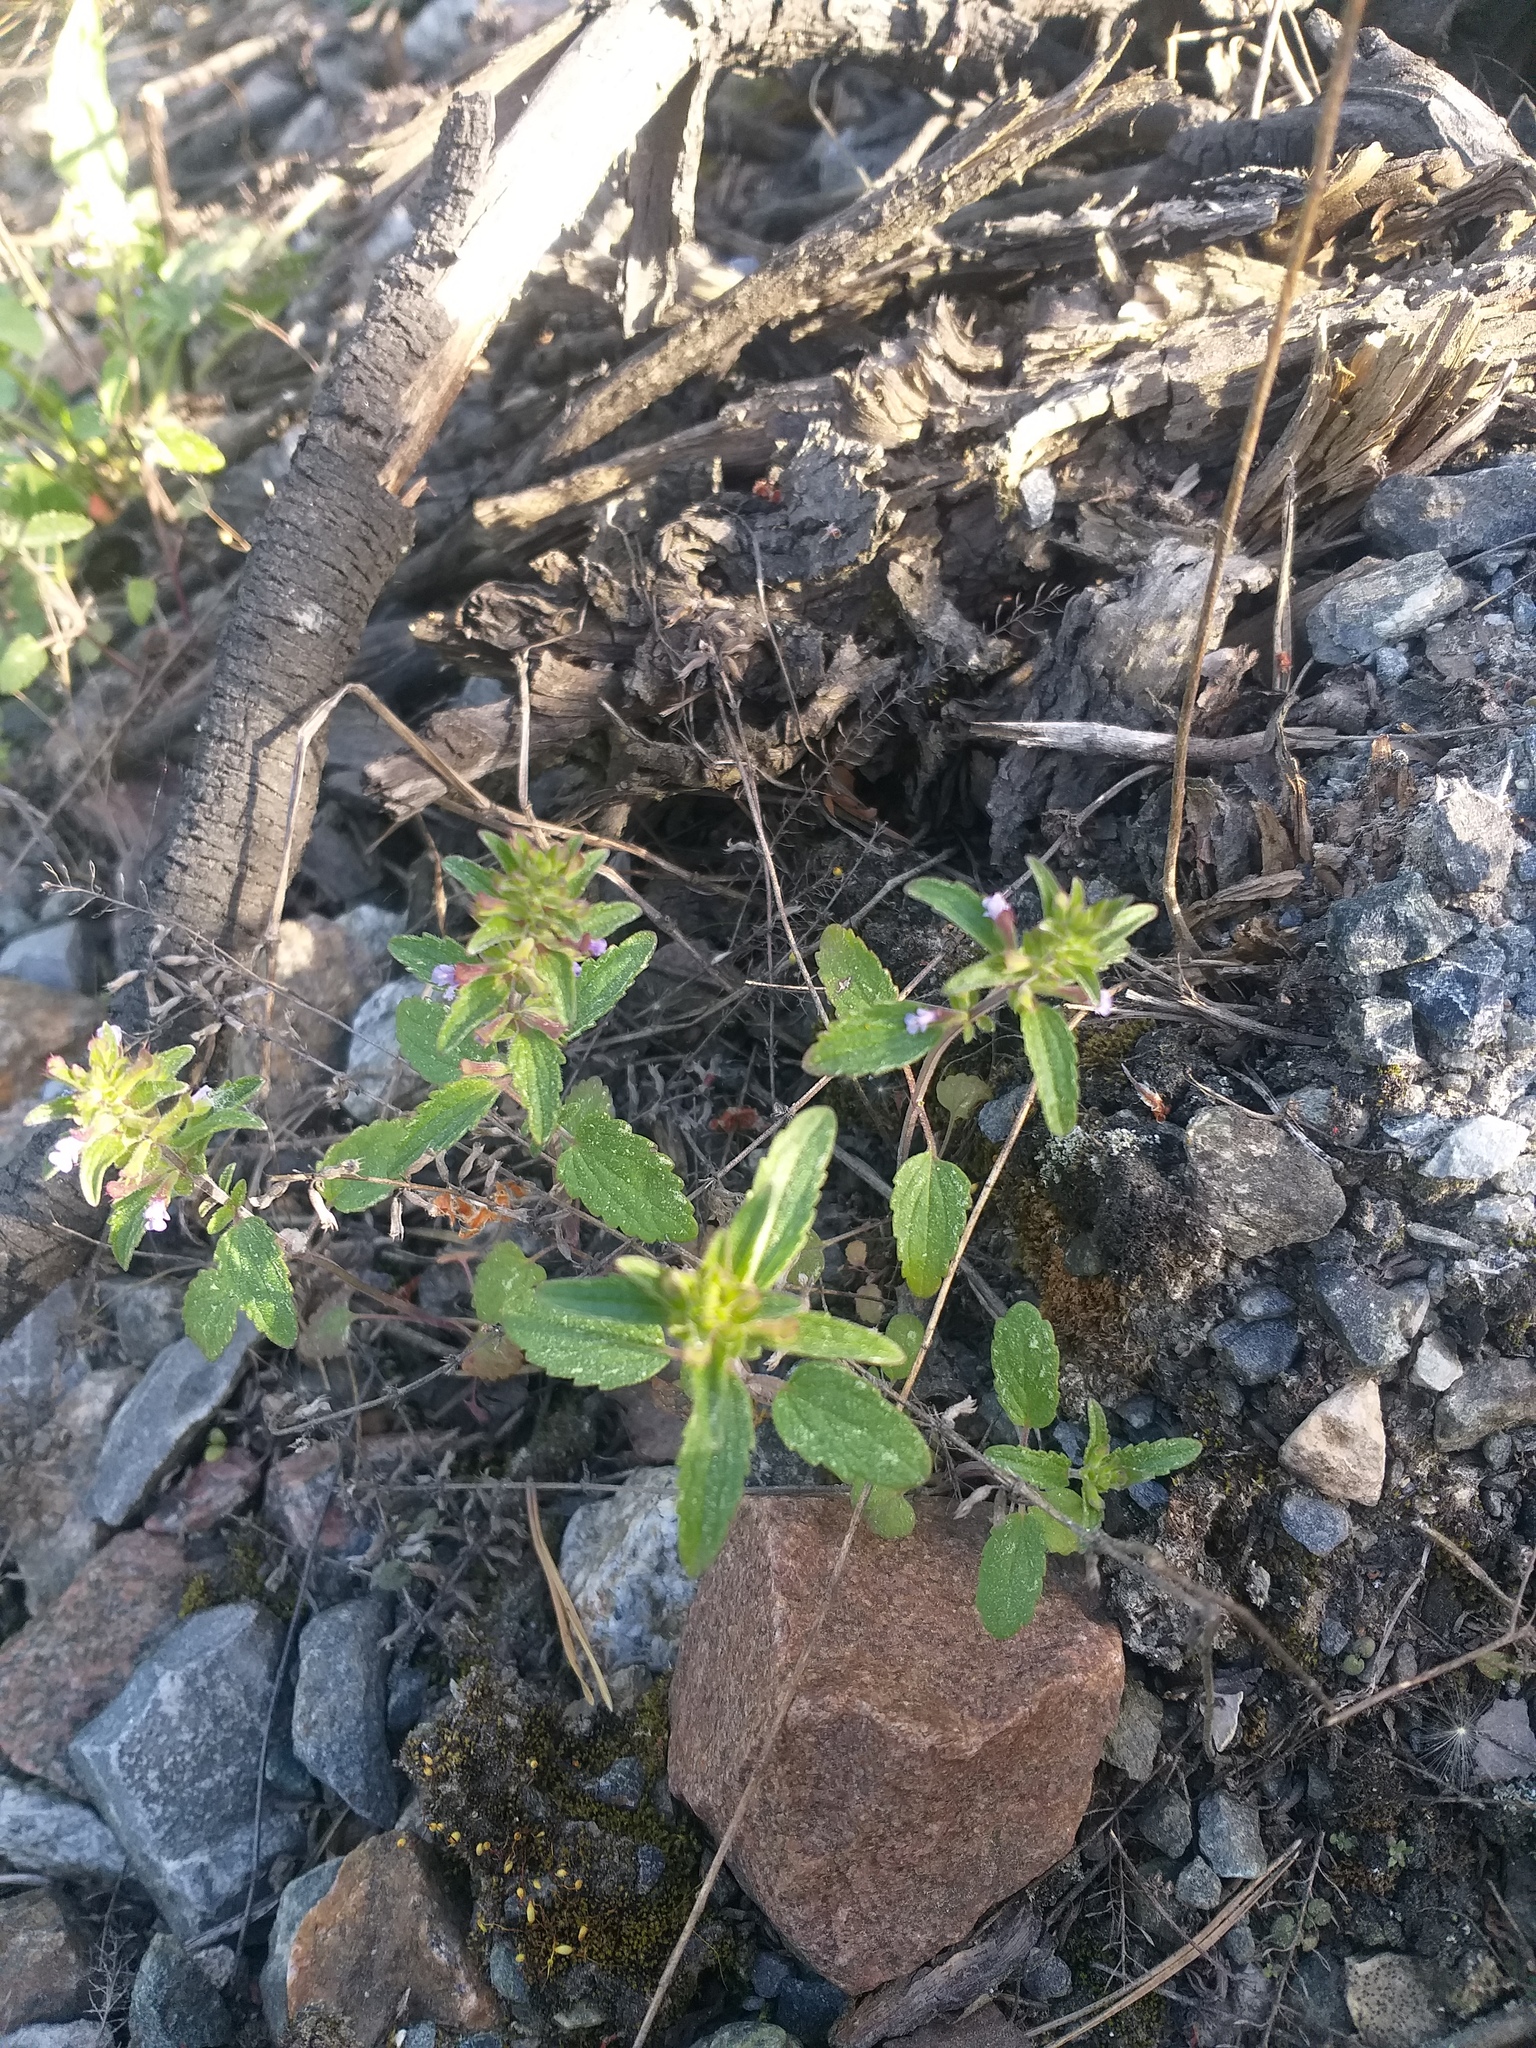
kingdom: Plantae
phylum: Tracheophyta
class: Magnoliopsida
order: Lamiales
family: Lamiaceae
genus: Dracocephalum
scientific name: Dracocephalum thymiflorum
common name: Thymeleaf dragonhead
